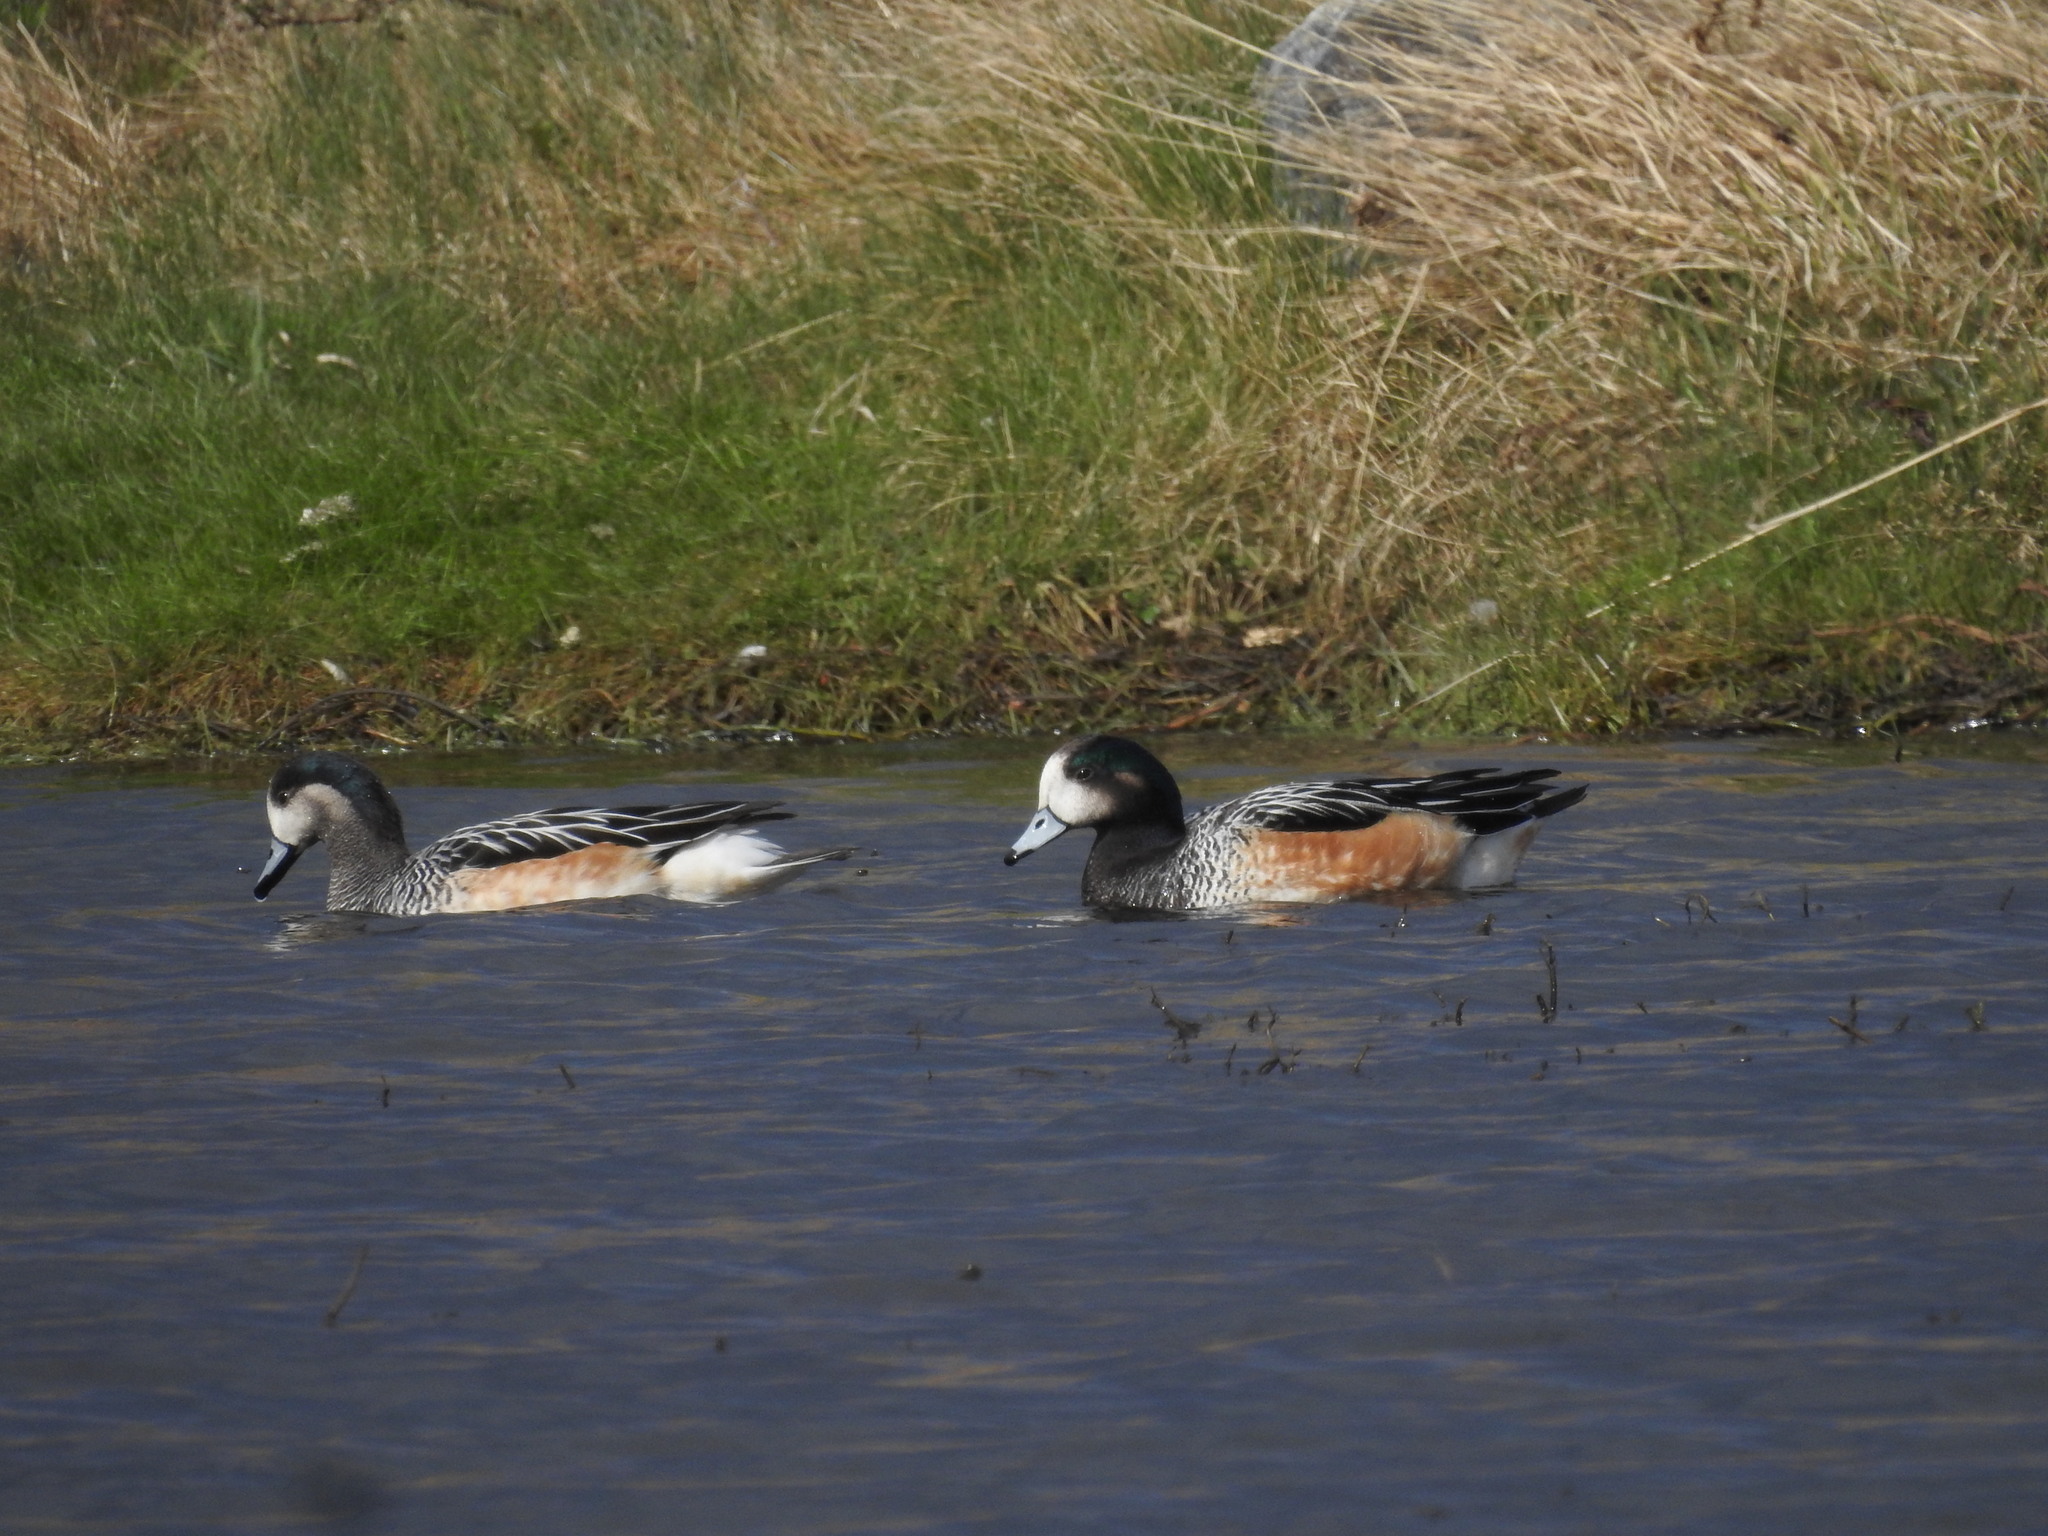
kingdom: Animalia
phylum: Chordata
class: Aves
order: Anseriformes
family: Anatidae
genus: Mareca
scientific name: Mareca sibilatrix
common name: Chiloe wigeon
